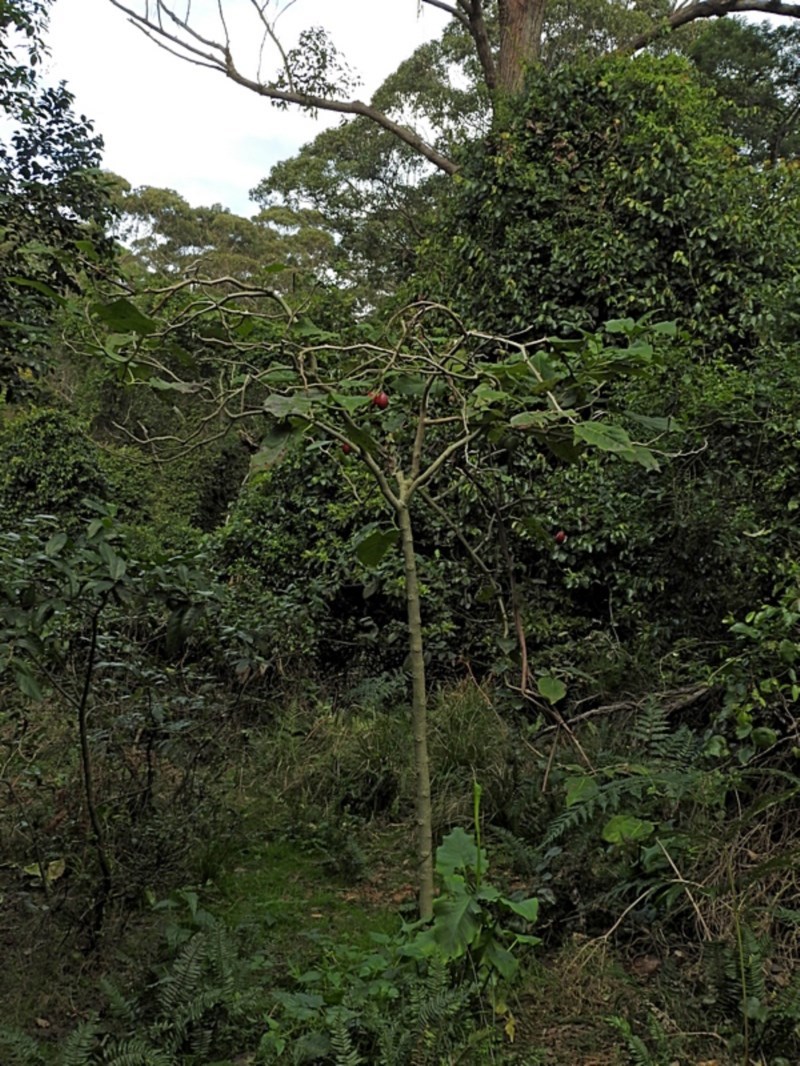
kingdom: Plantae
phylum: Tracheophyta
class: Magnoliopsida
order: Solanales
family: Solanaceae
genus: Solanum
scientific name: Solanum betaceum
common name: Tamarillo
